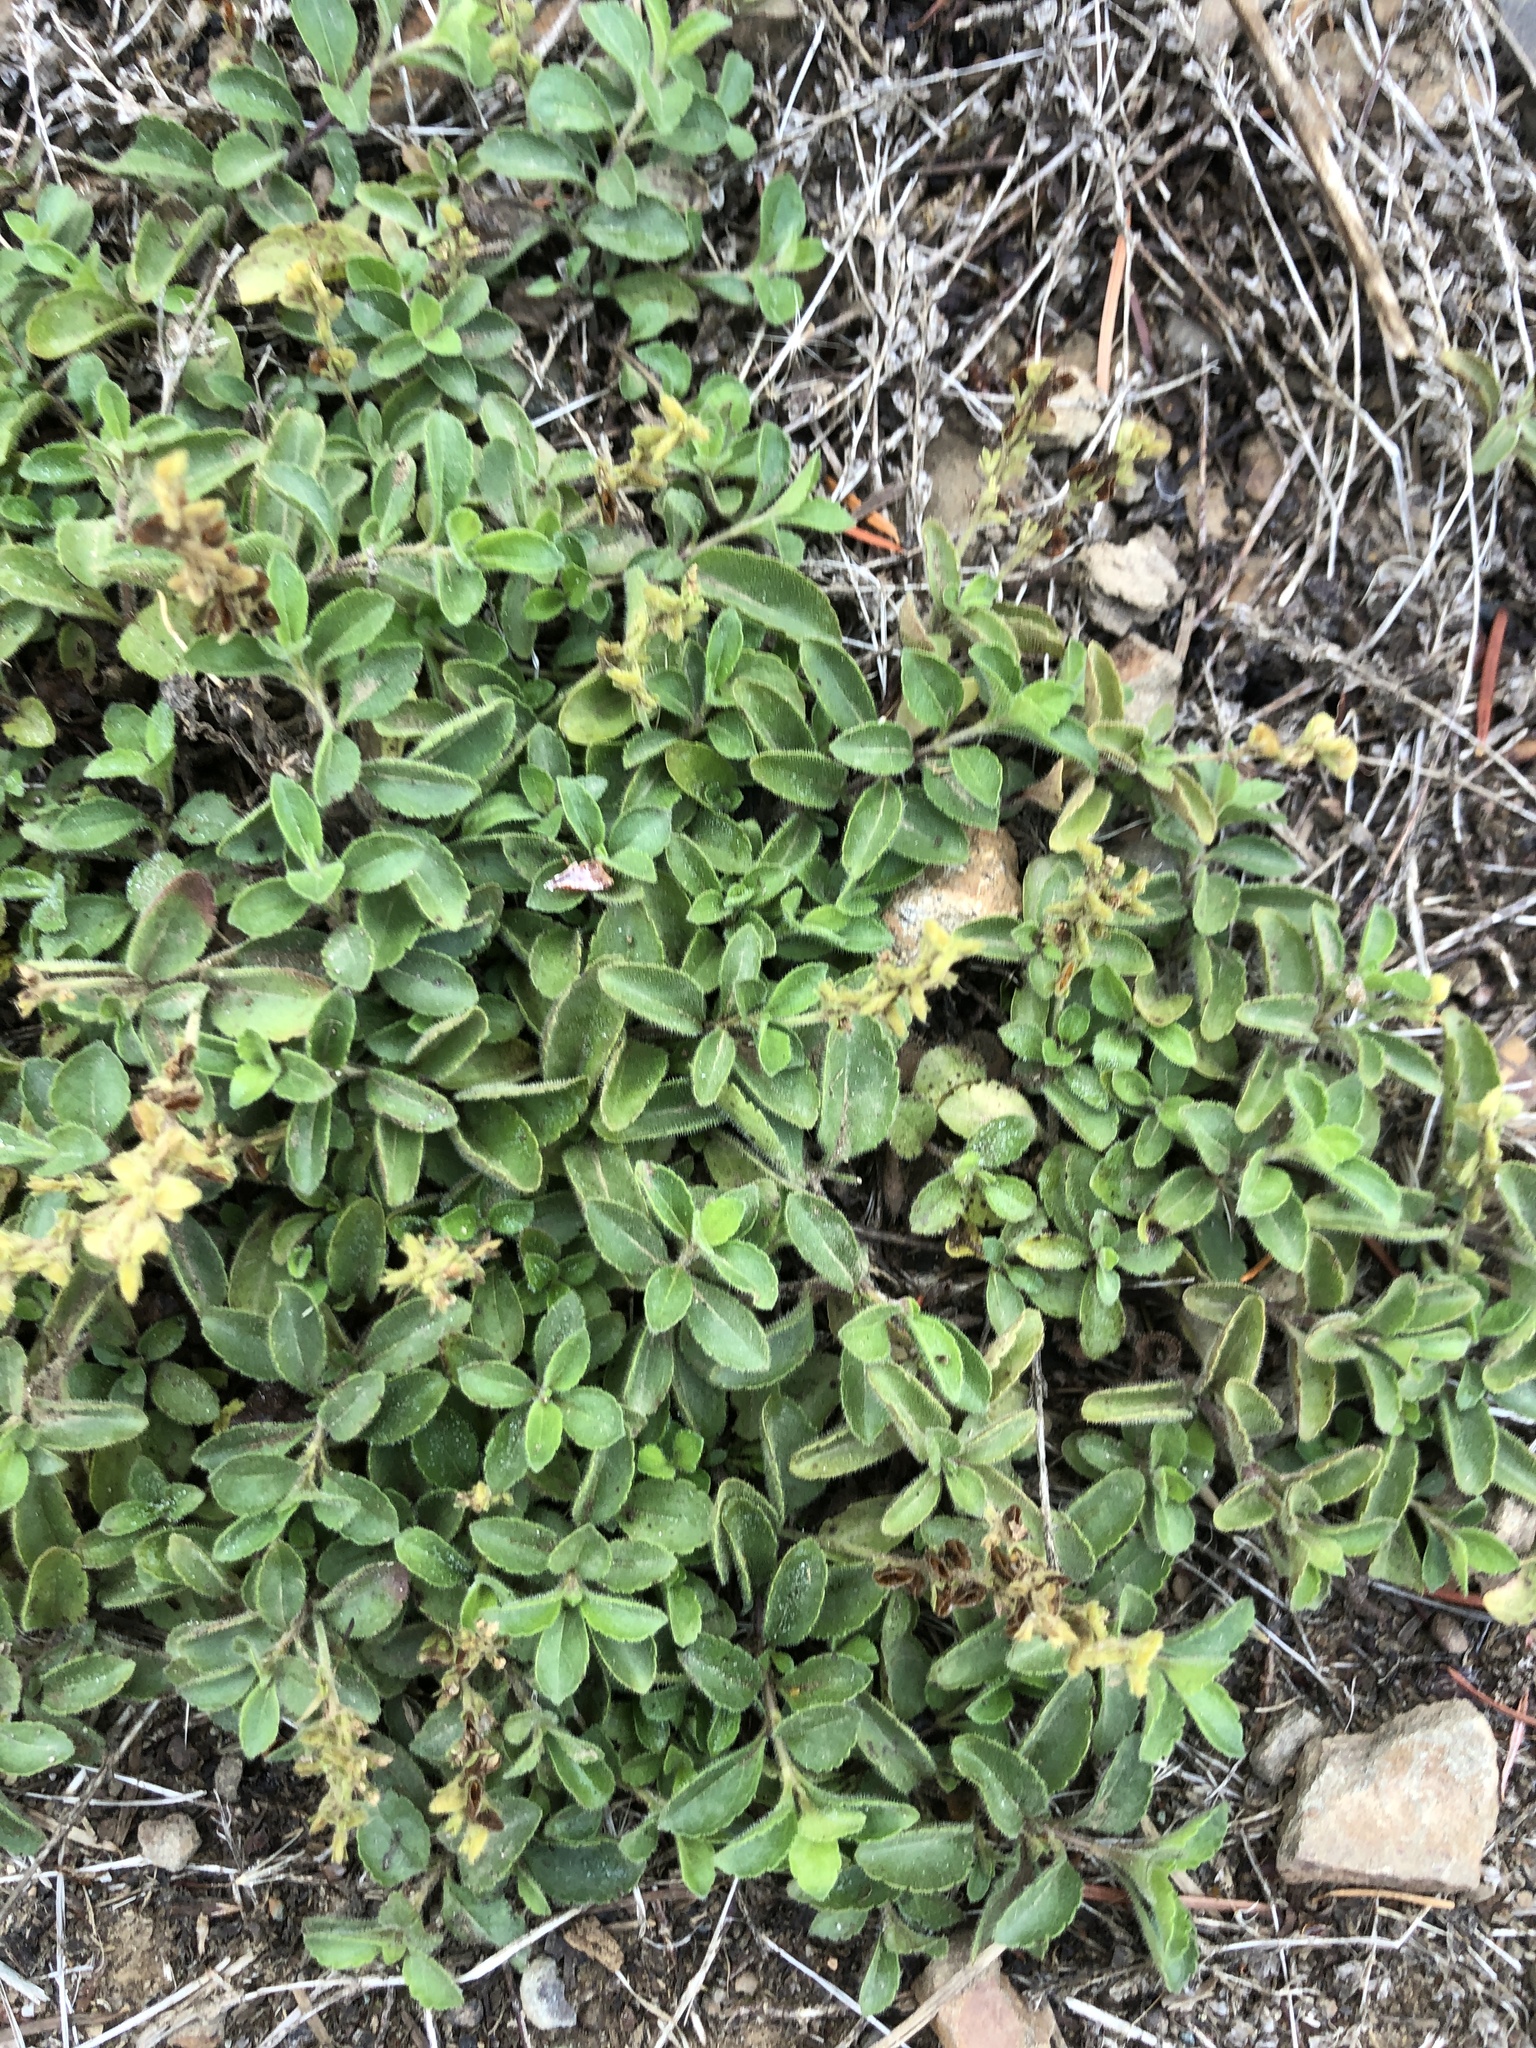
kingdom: Plantae
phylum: Tracheophyta
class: Magnoliopsida
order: Lamiales
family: Plantaginaceae
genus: Veronica
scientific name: Veronica officinalis
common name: Common speedwell
